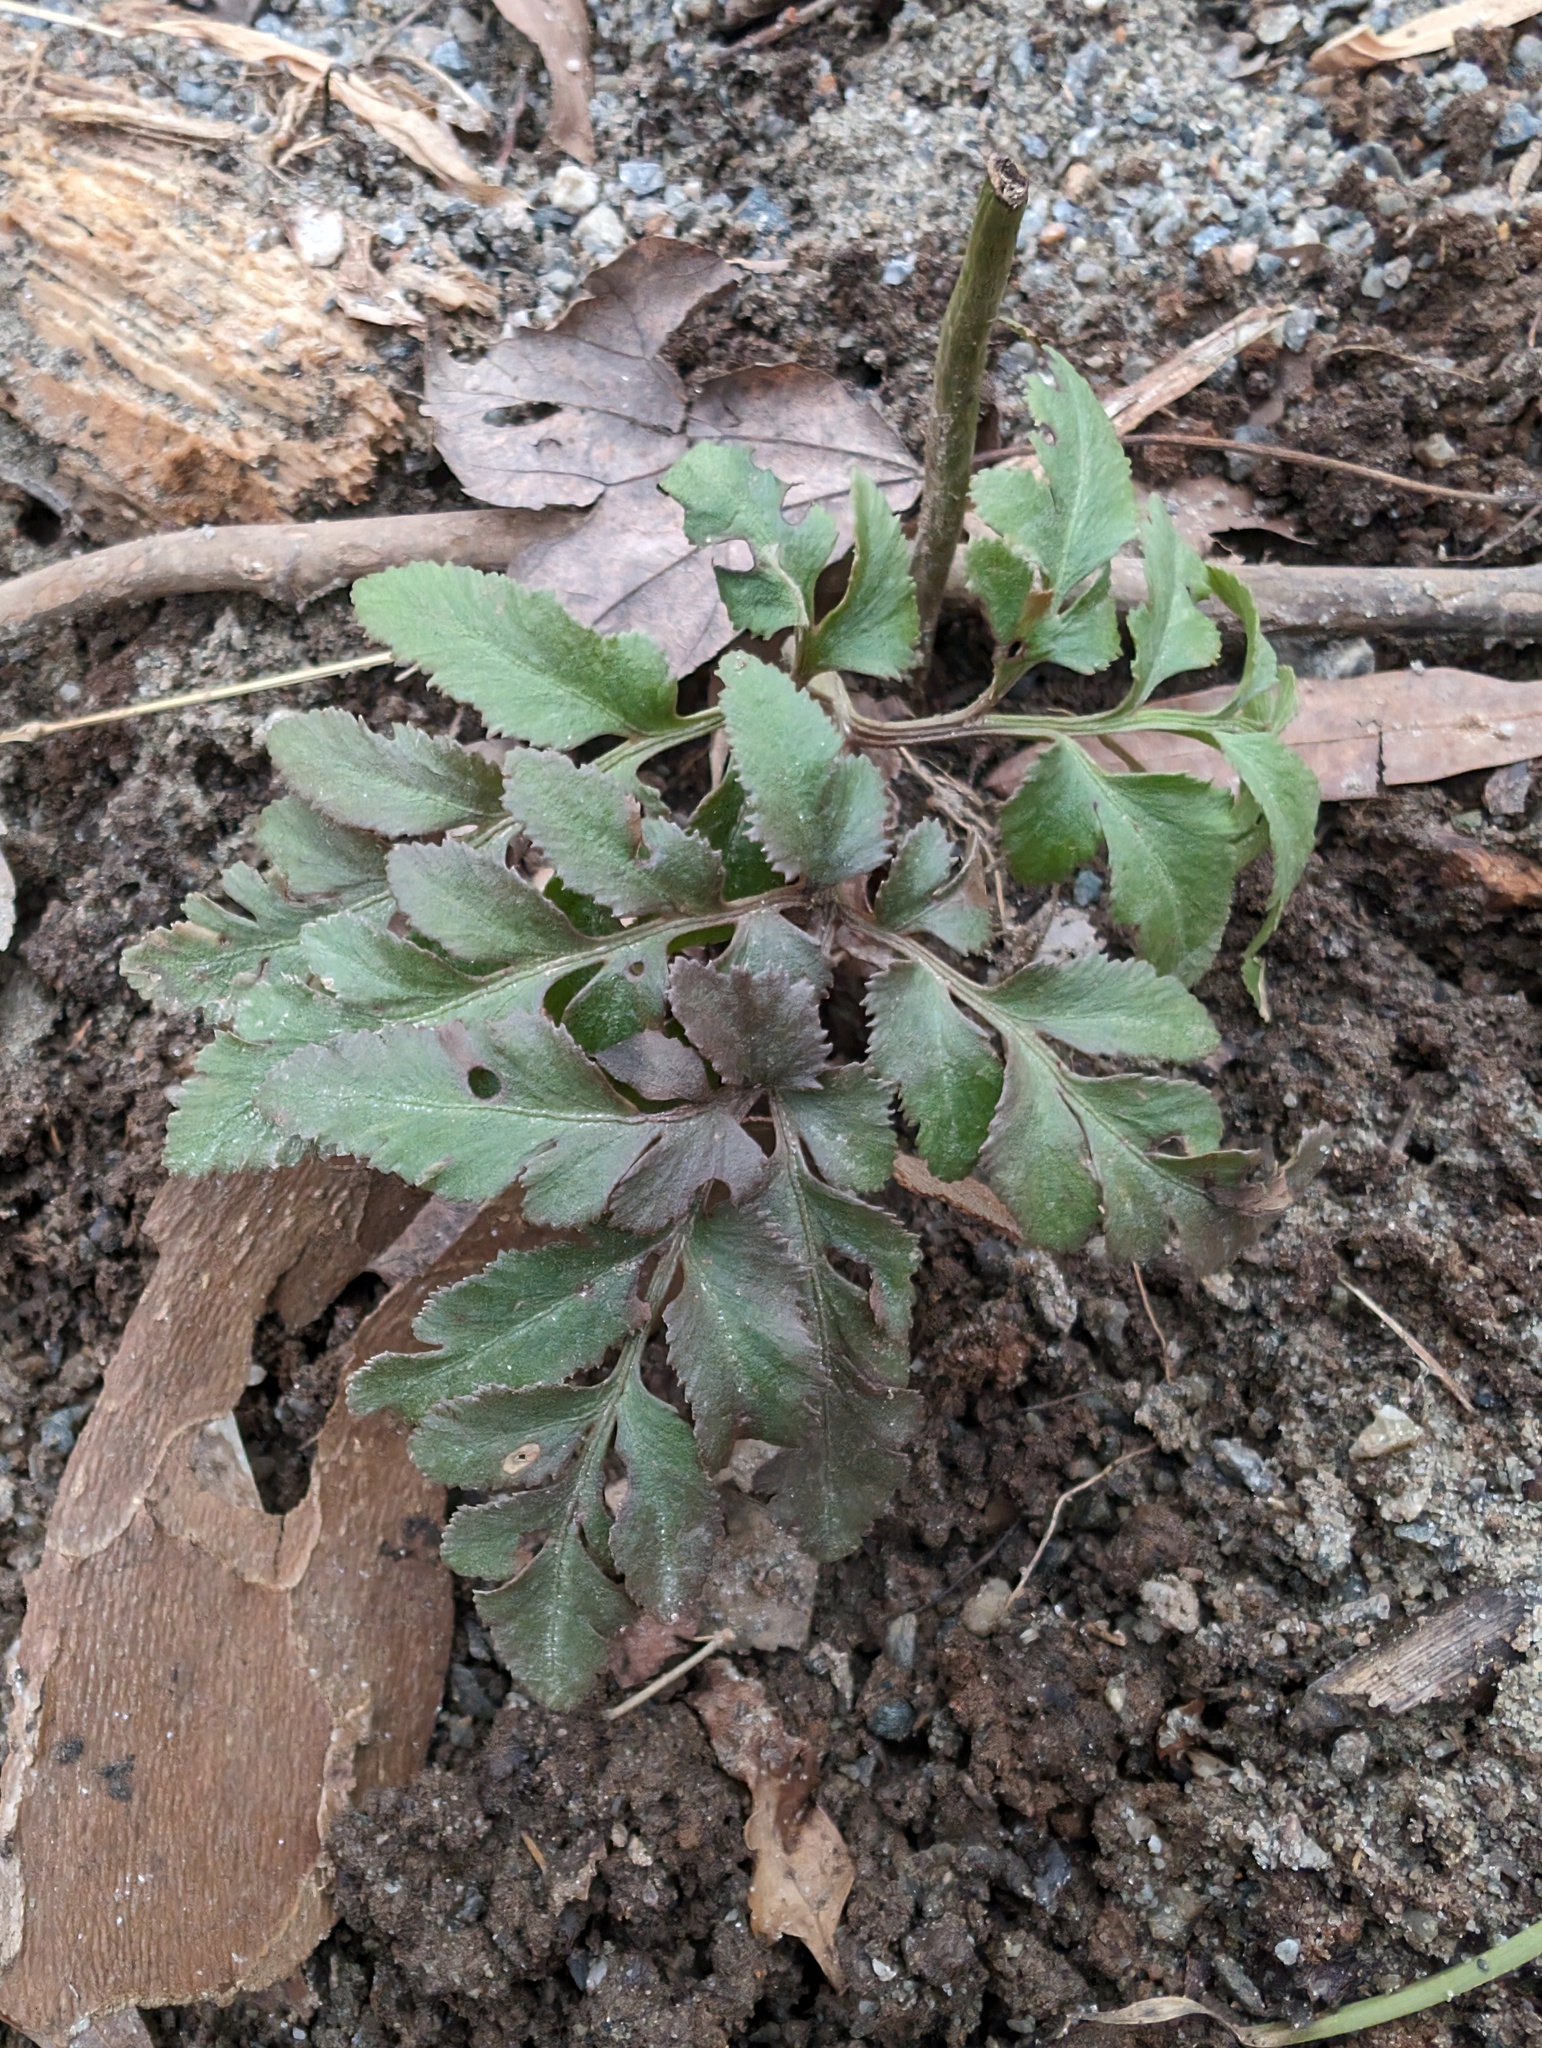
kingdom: Plantae
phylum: Tracheophyta
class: Polypodiopsida
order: Ophioglossales
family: Ophioglossaceae
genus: Sceptridium
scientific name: Sceptridium dissectum
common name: Cut-leaved grapefern
